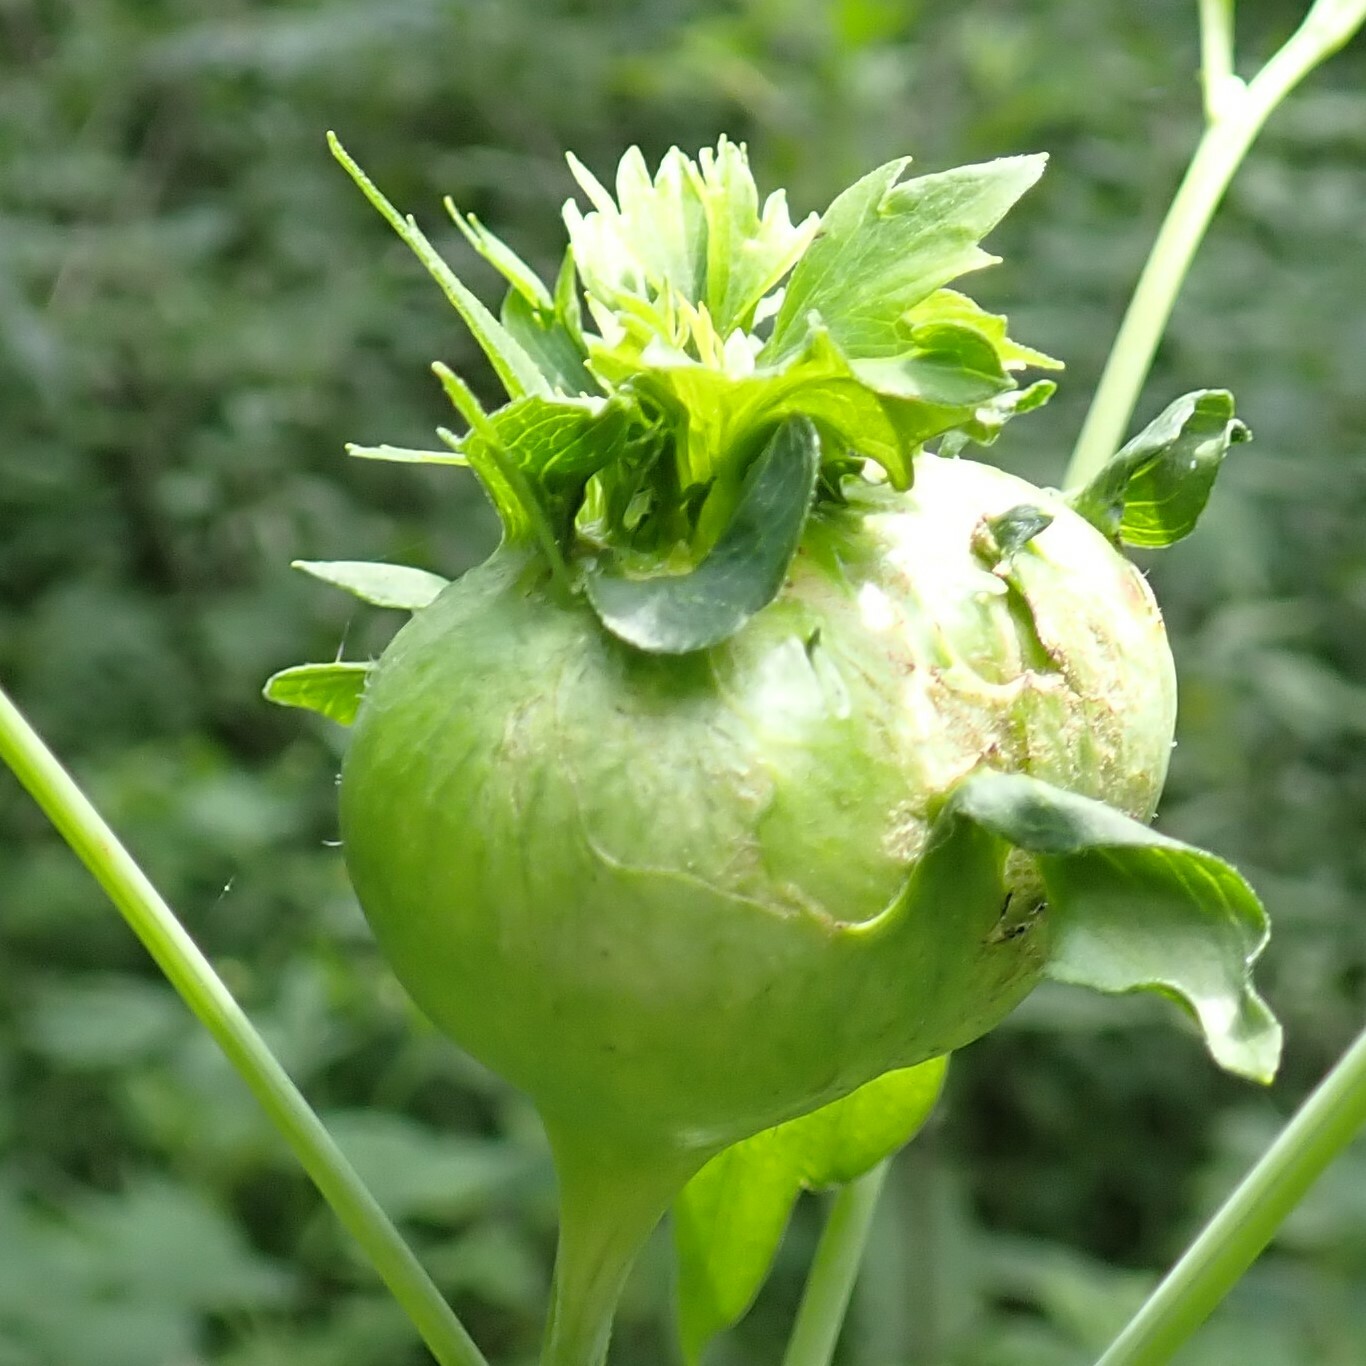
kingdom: Animalia
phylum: Arthropoda
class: Insecta
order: Diptera
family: Cecidomyiidae
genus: Asphondylia
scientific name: Asphondylia rudbeckiaeconspicua
